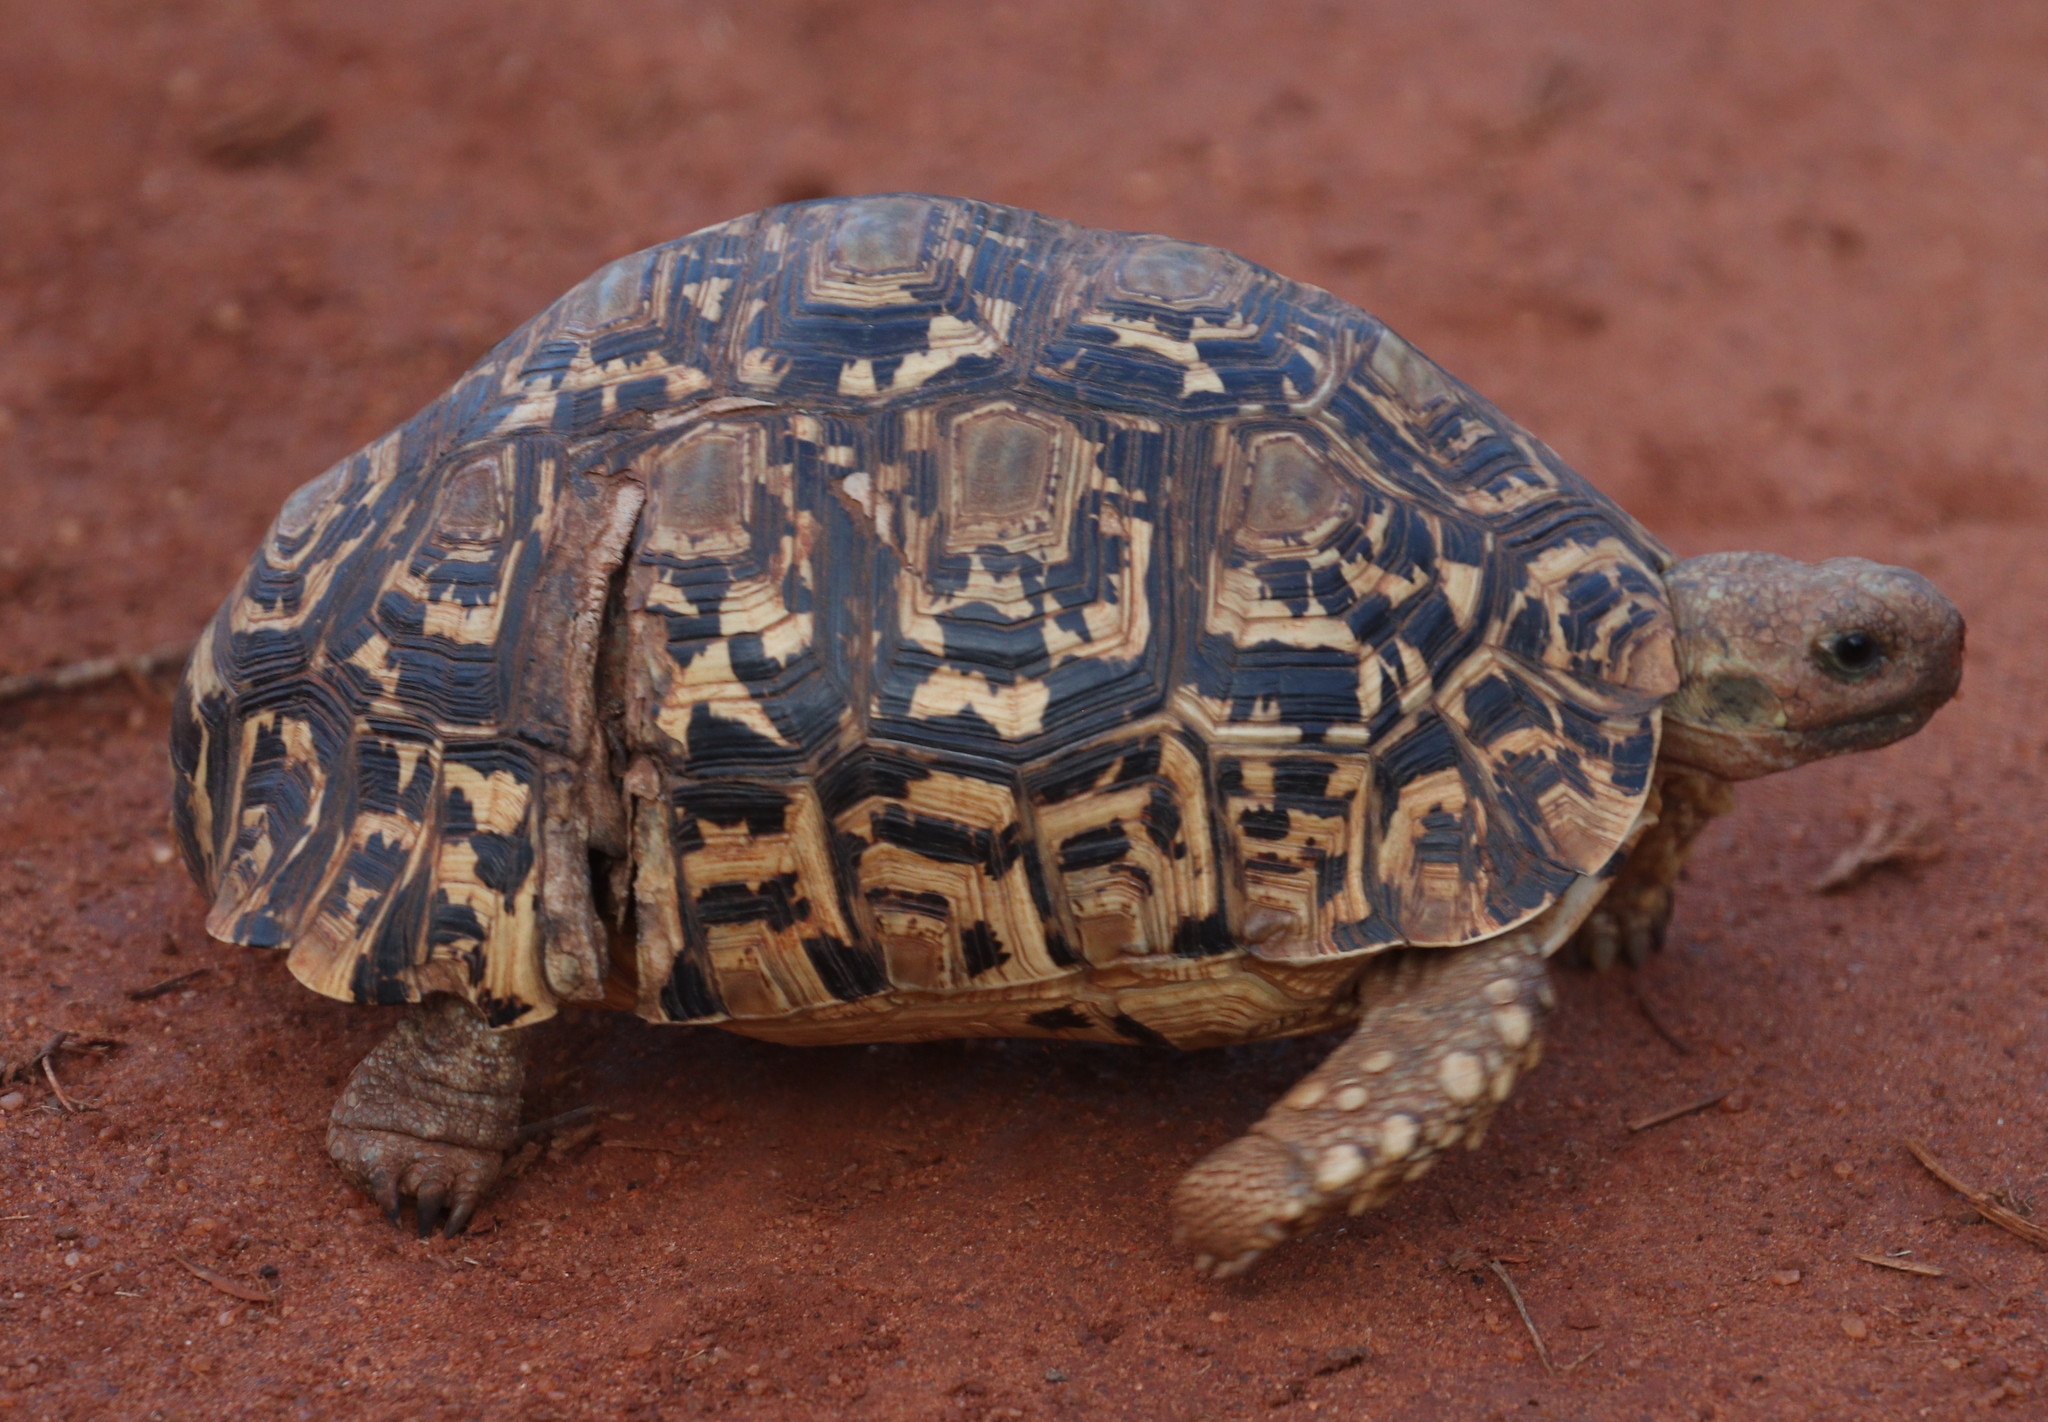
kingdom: Animalia
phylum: Chordata
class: Testudines
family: Testudinidae
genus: Stigmochelys
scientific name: Stigmochelys pardalis
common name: Leopard tortoise
